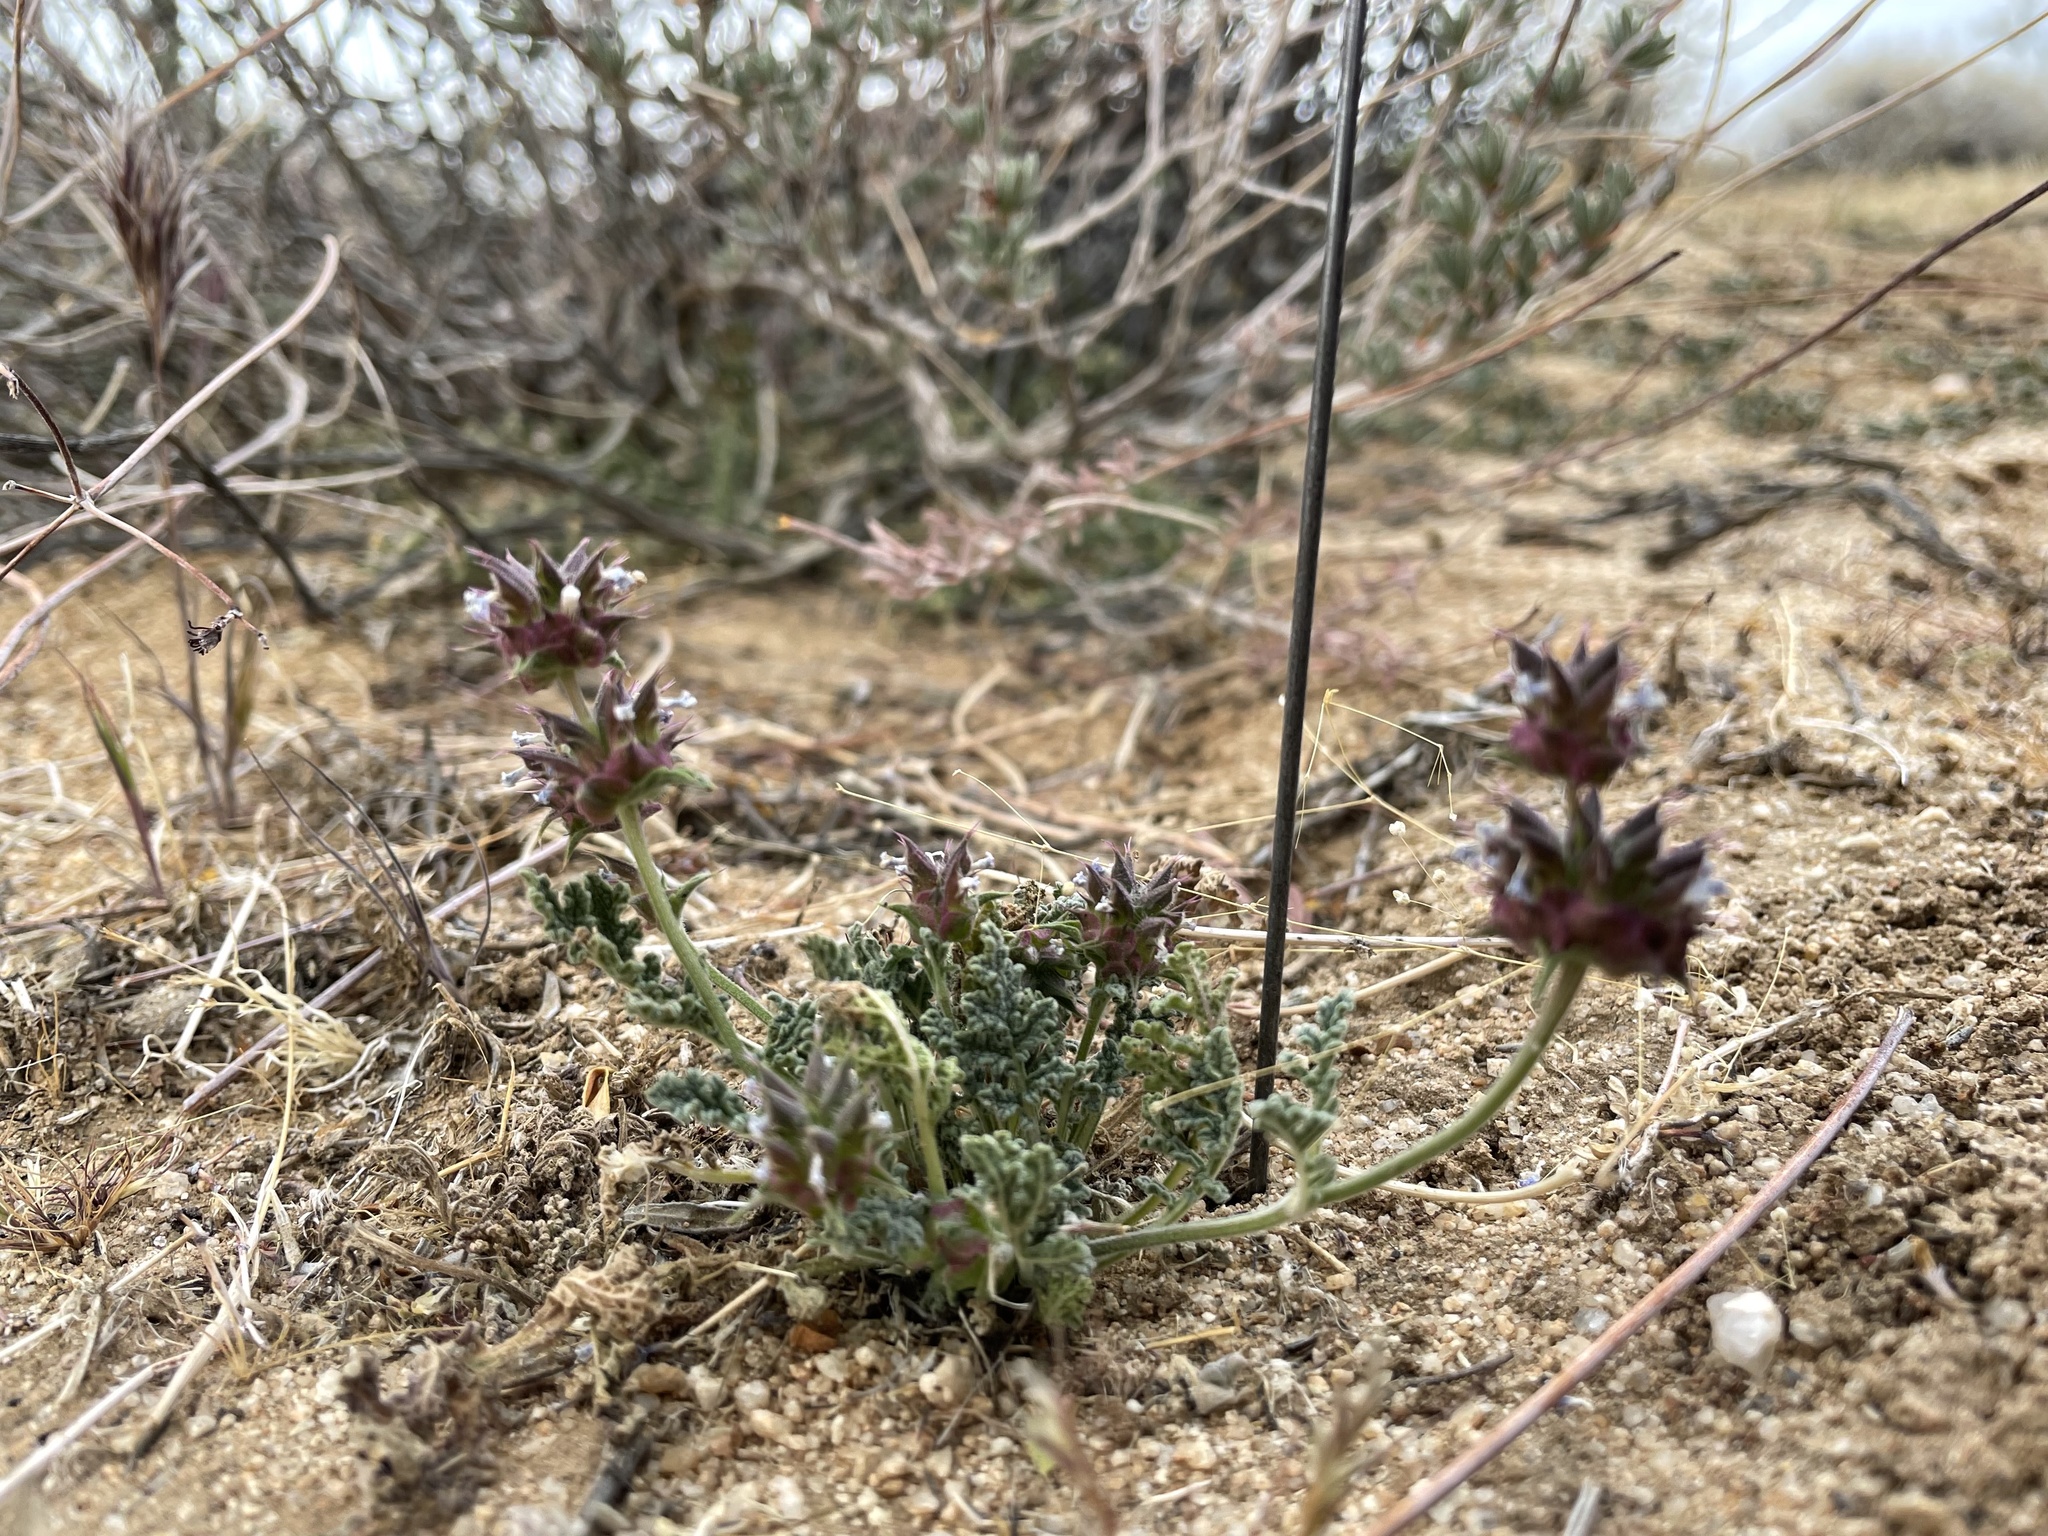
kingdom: Plantae
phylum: Tracheophyta
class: Magnoliopsida
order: Lamiales
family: Lamiaceae
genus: Salvia
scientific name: Salvia columbariae
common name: Chia
